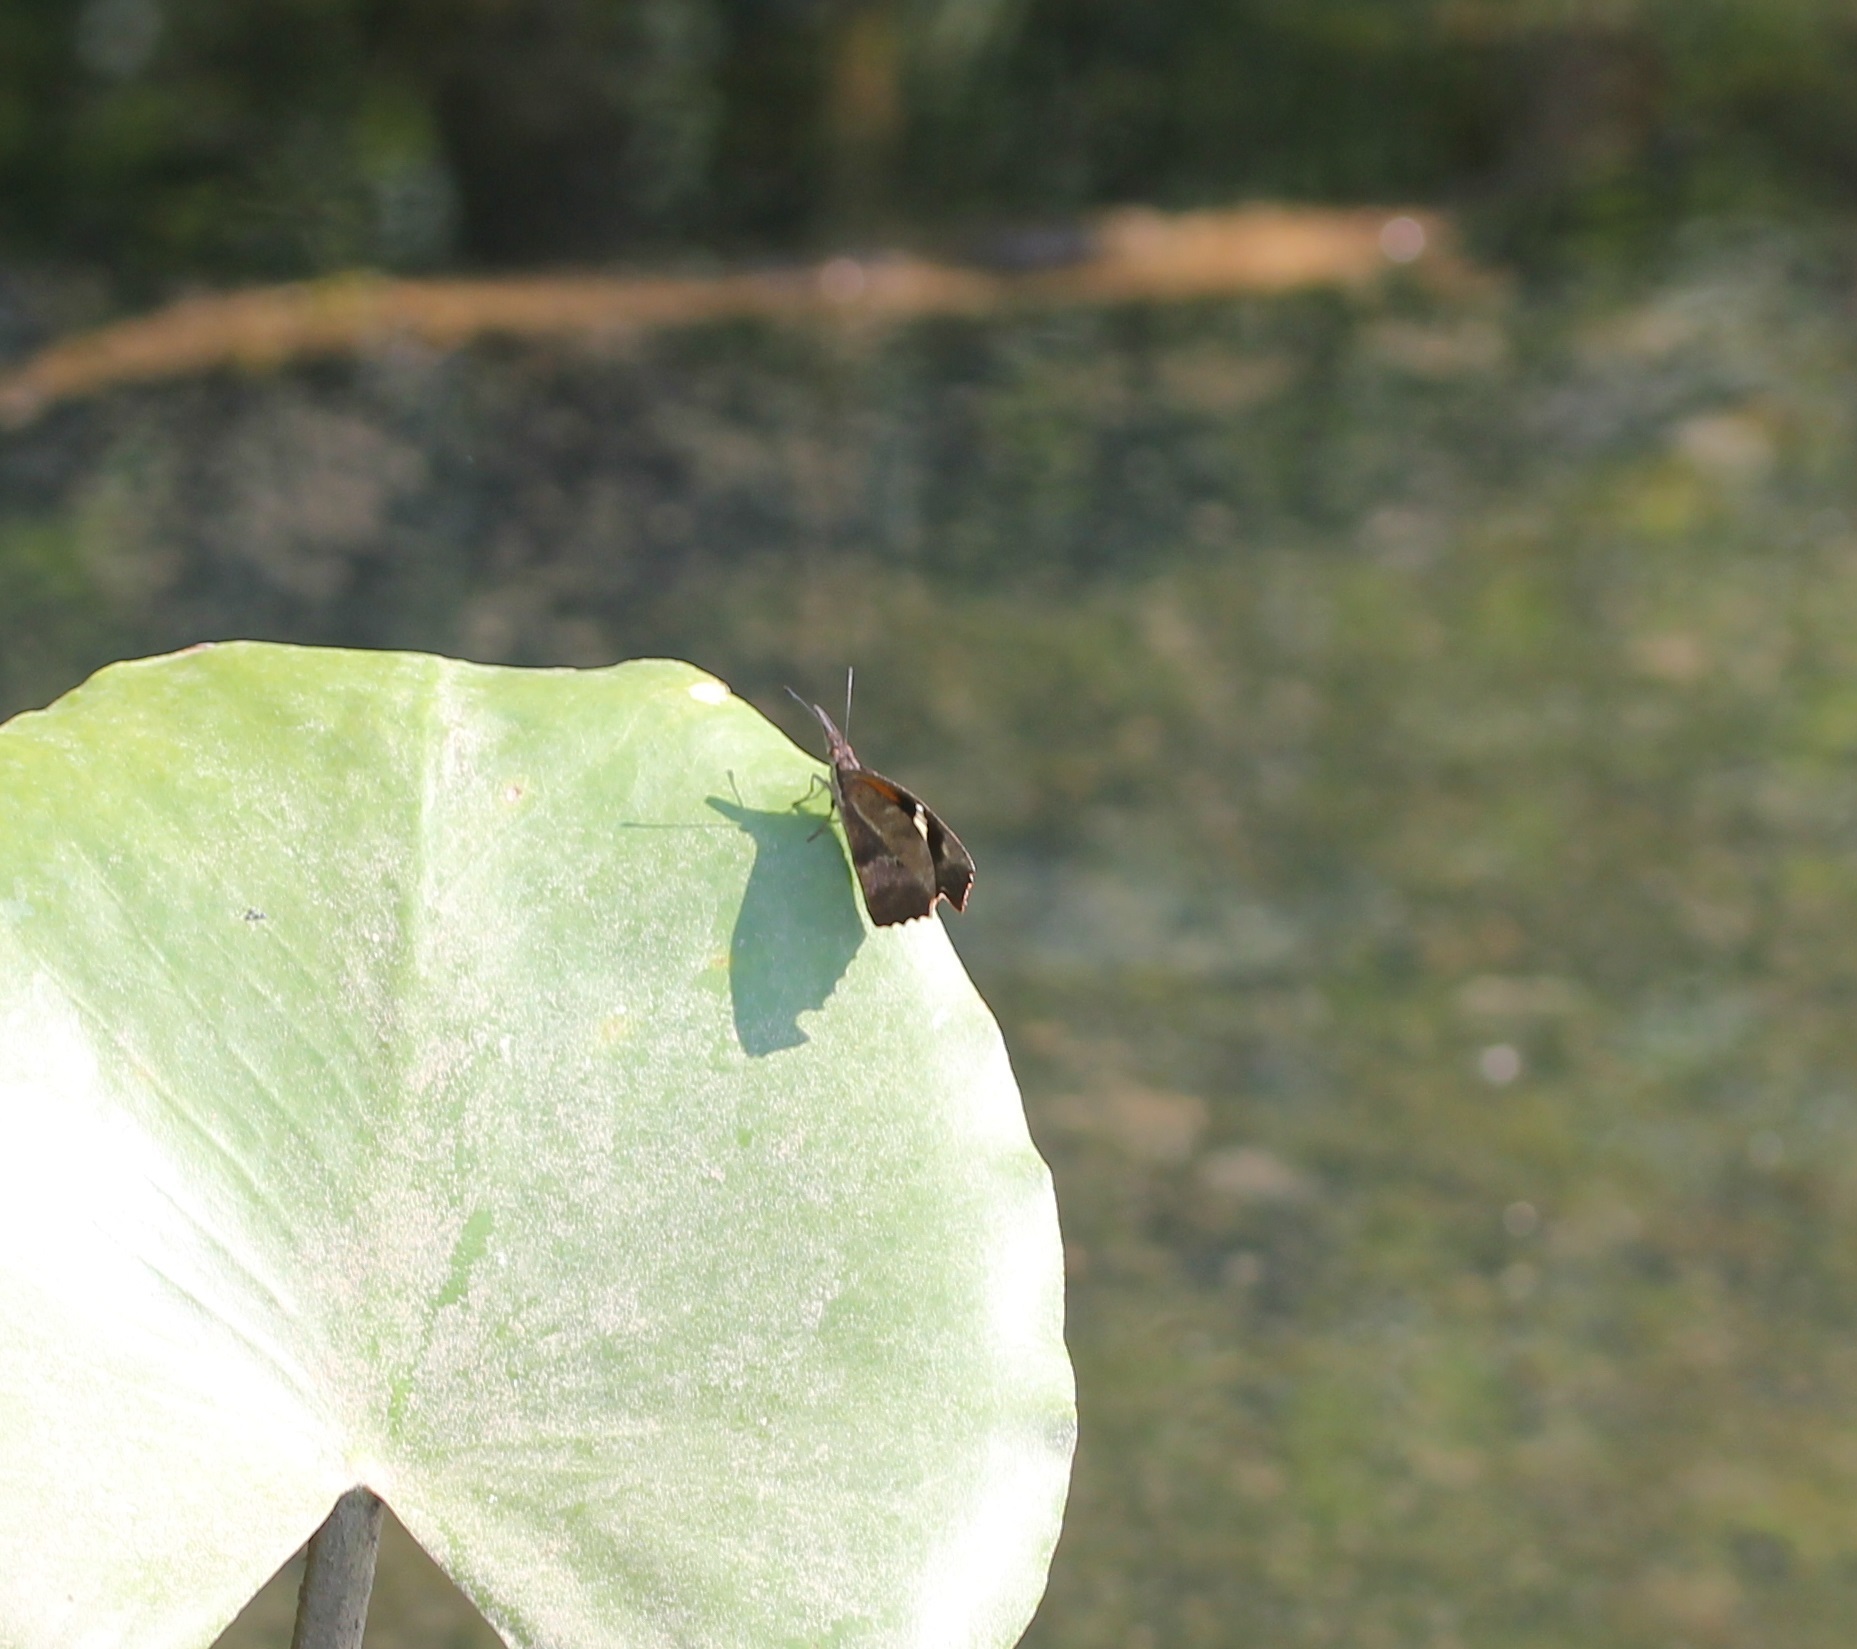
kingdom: Animalia
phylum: Arthropoda
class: Insecta
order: Lepidoptera
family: Nymphalidae
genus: Libytheana
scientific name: Libytheana carinenta
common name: American snout
